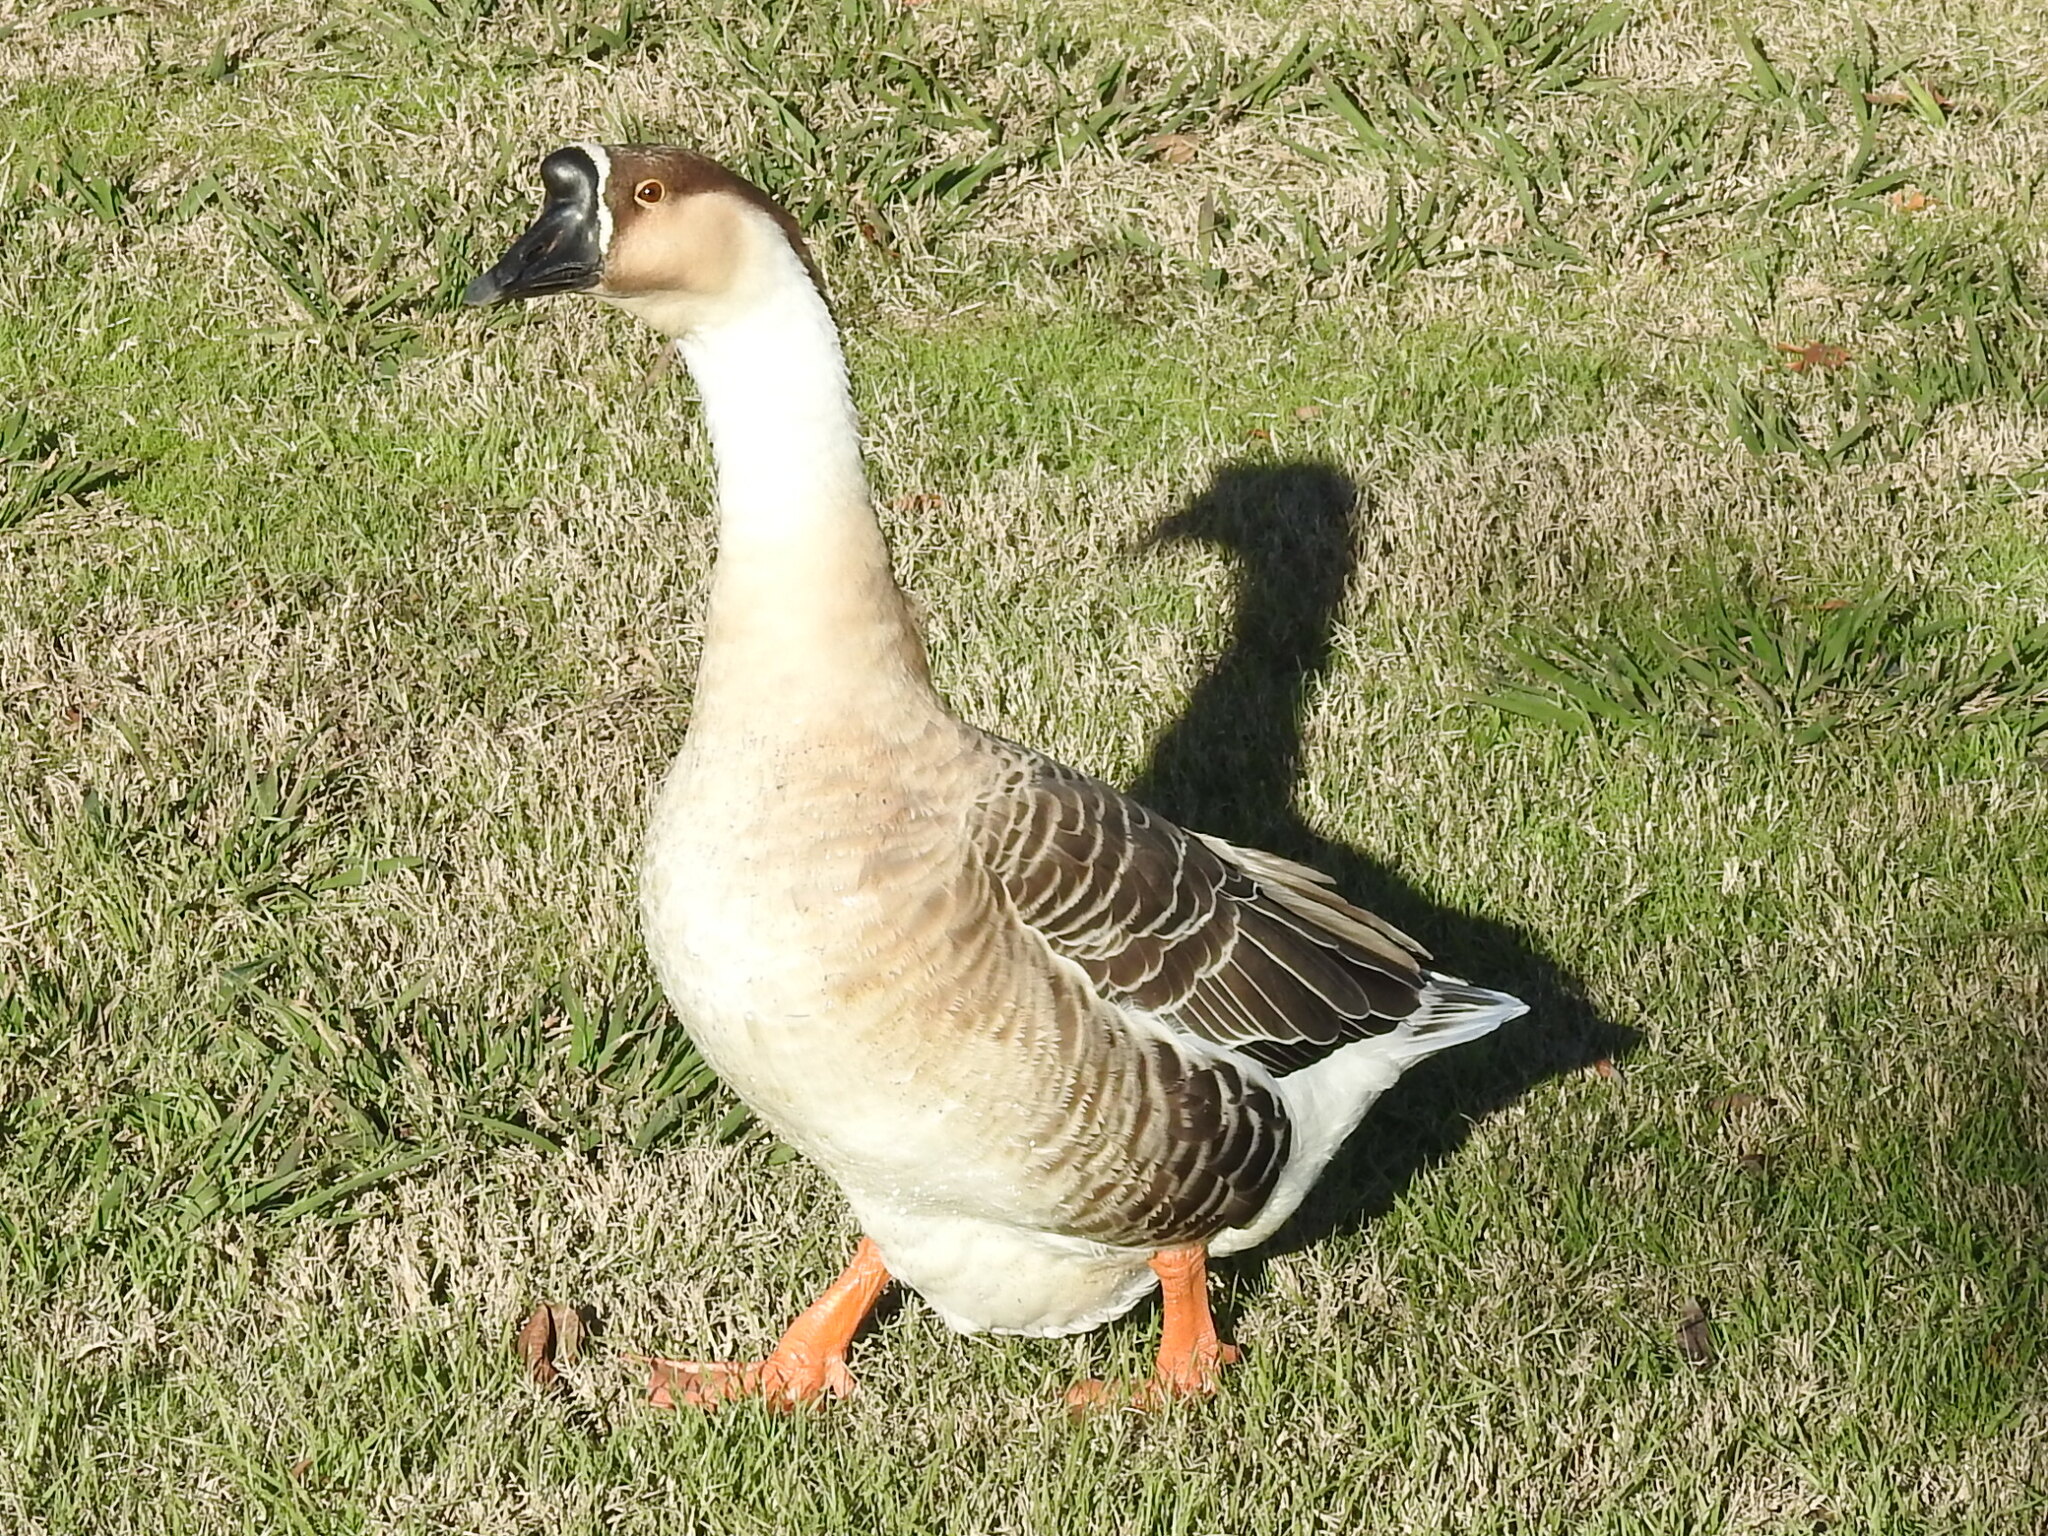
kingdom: Animalia
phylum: Chordata
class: Aves
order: Anseriformes
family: Anatidae
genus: Anser
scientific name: Anser cygnoides
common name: Swan goose
